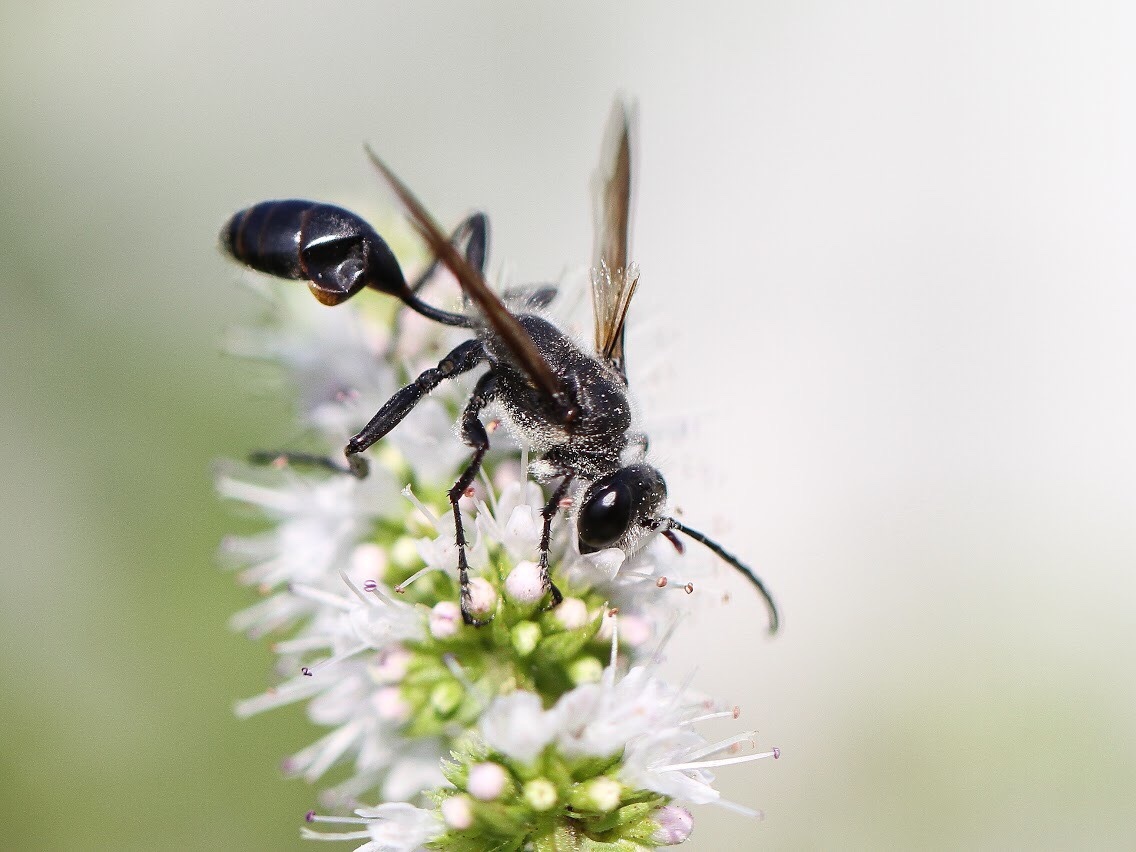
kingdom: Animalia
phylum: Arthropoda
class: Insecta
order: Hymenoptera
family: Sphecidae
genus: Isodontia
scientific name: Isodontia mexicana
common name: Mud dauber
